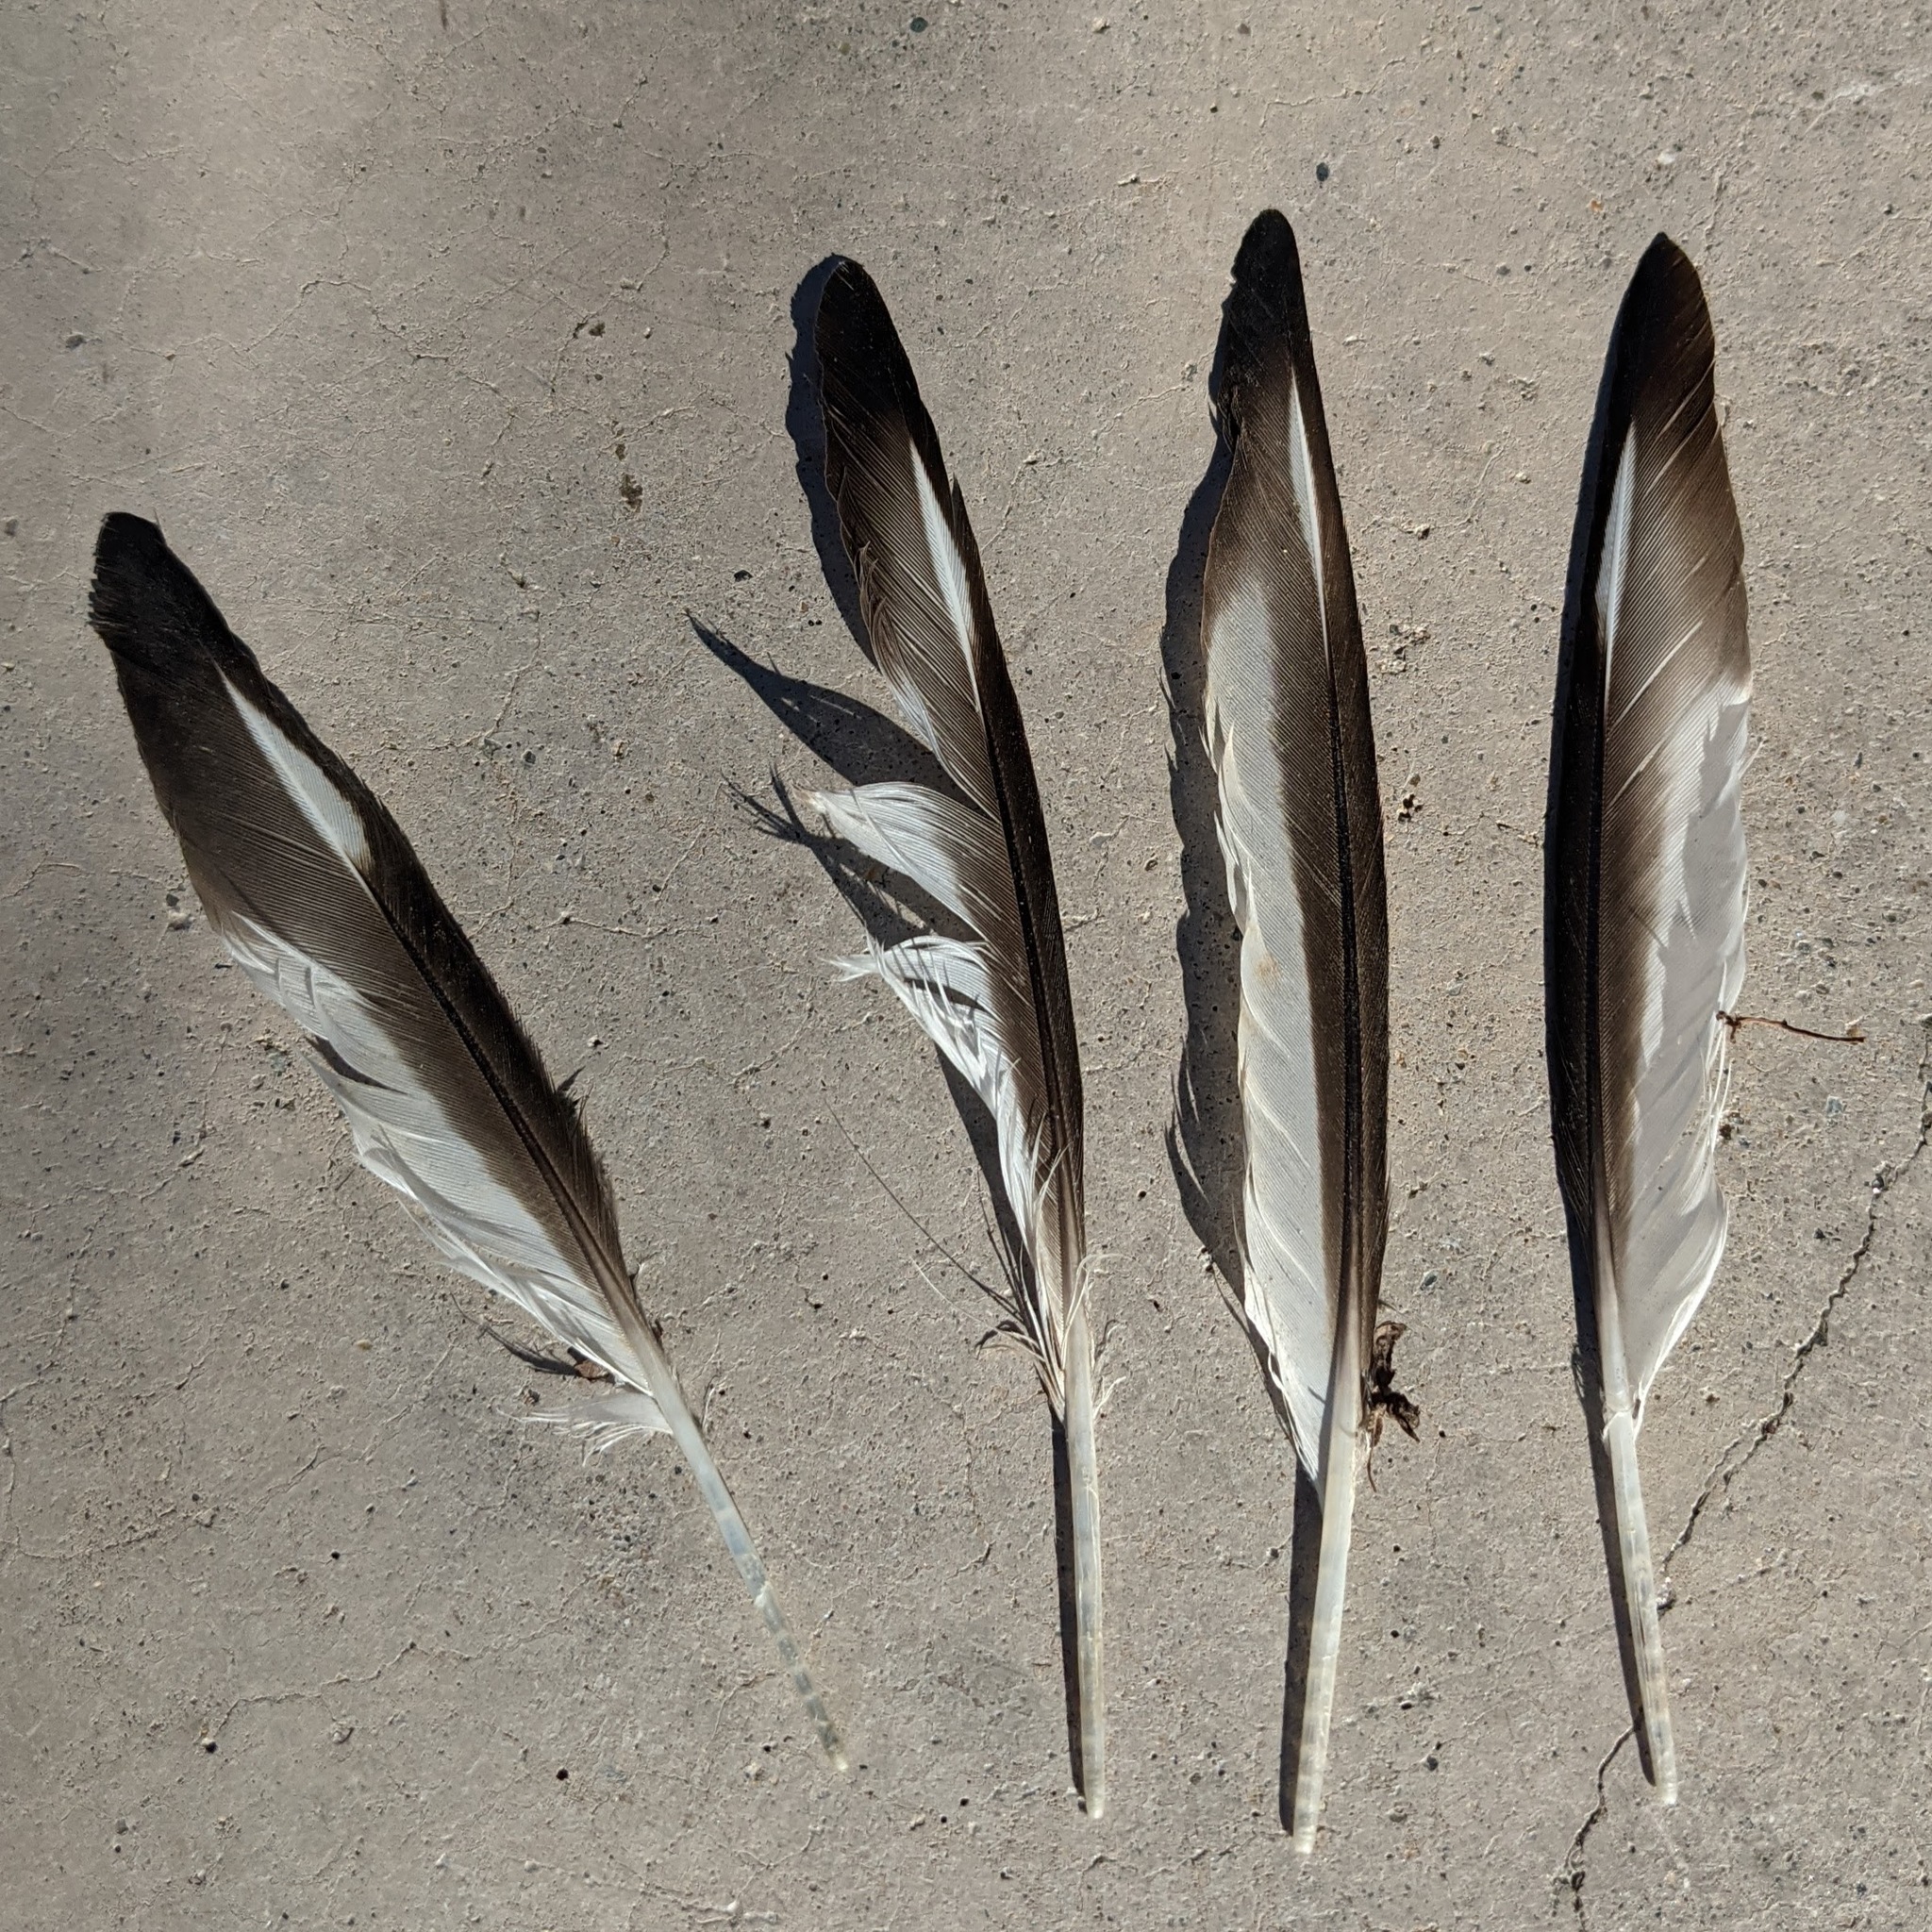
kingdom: Animalia
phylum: Chordata
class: Aves
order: Charadriiformes
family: Charadriidae
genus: Charadrius
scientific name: Charadrius vociferus
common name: Killdeer
